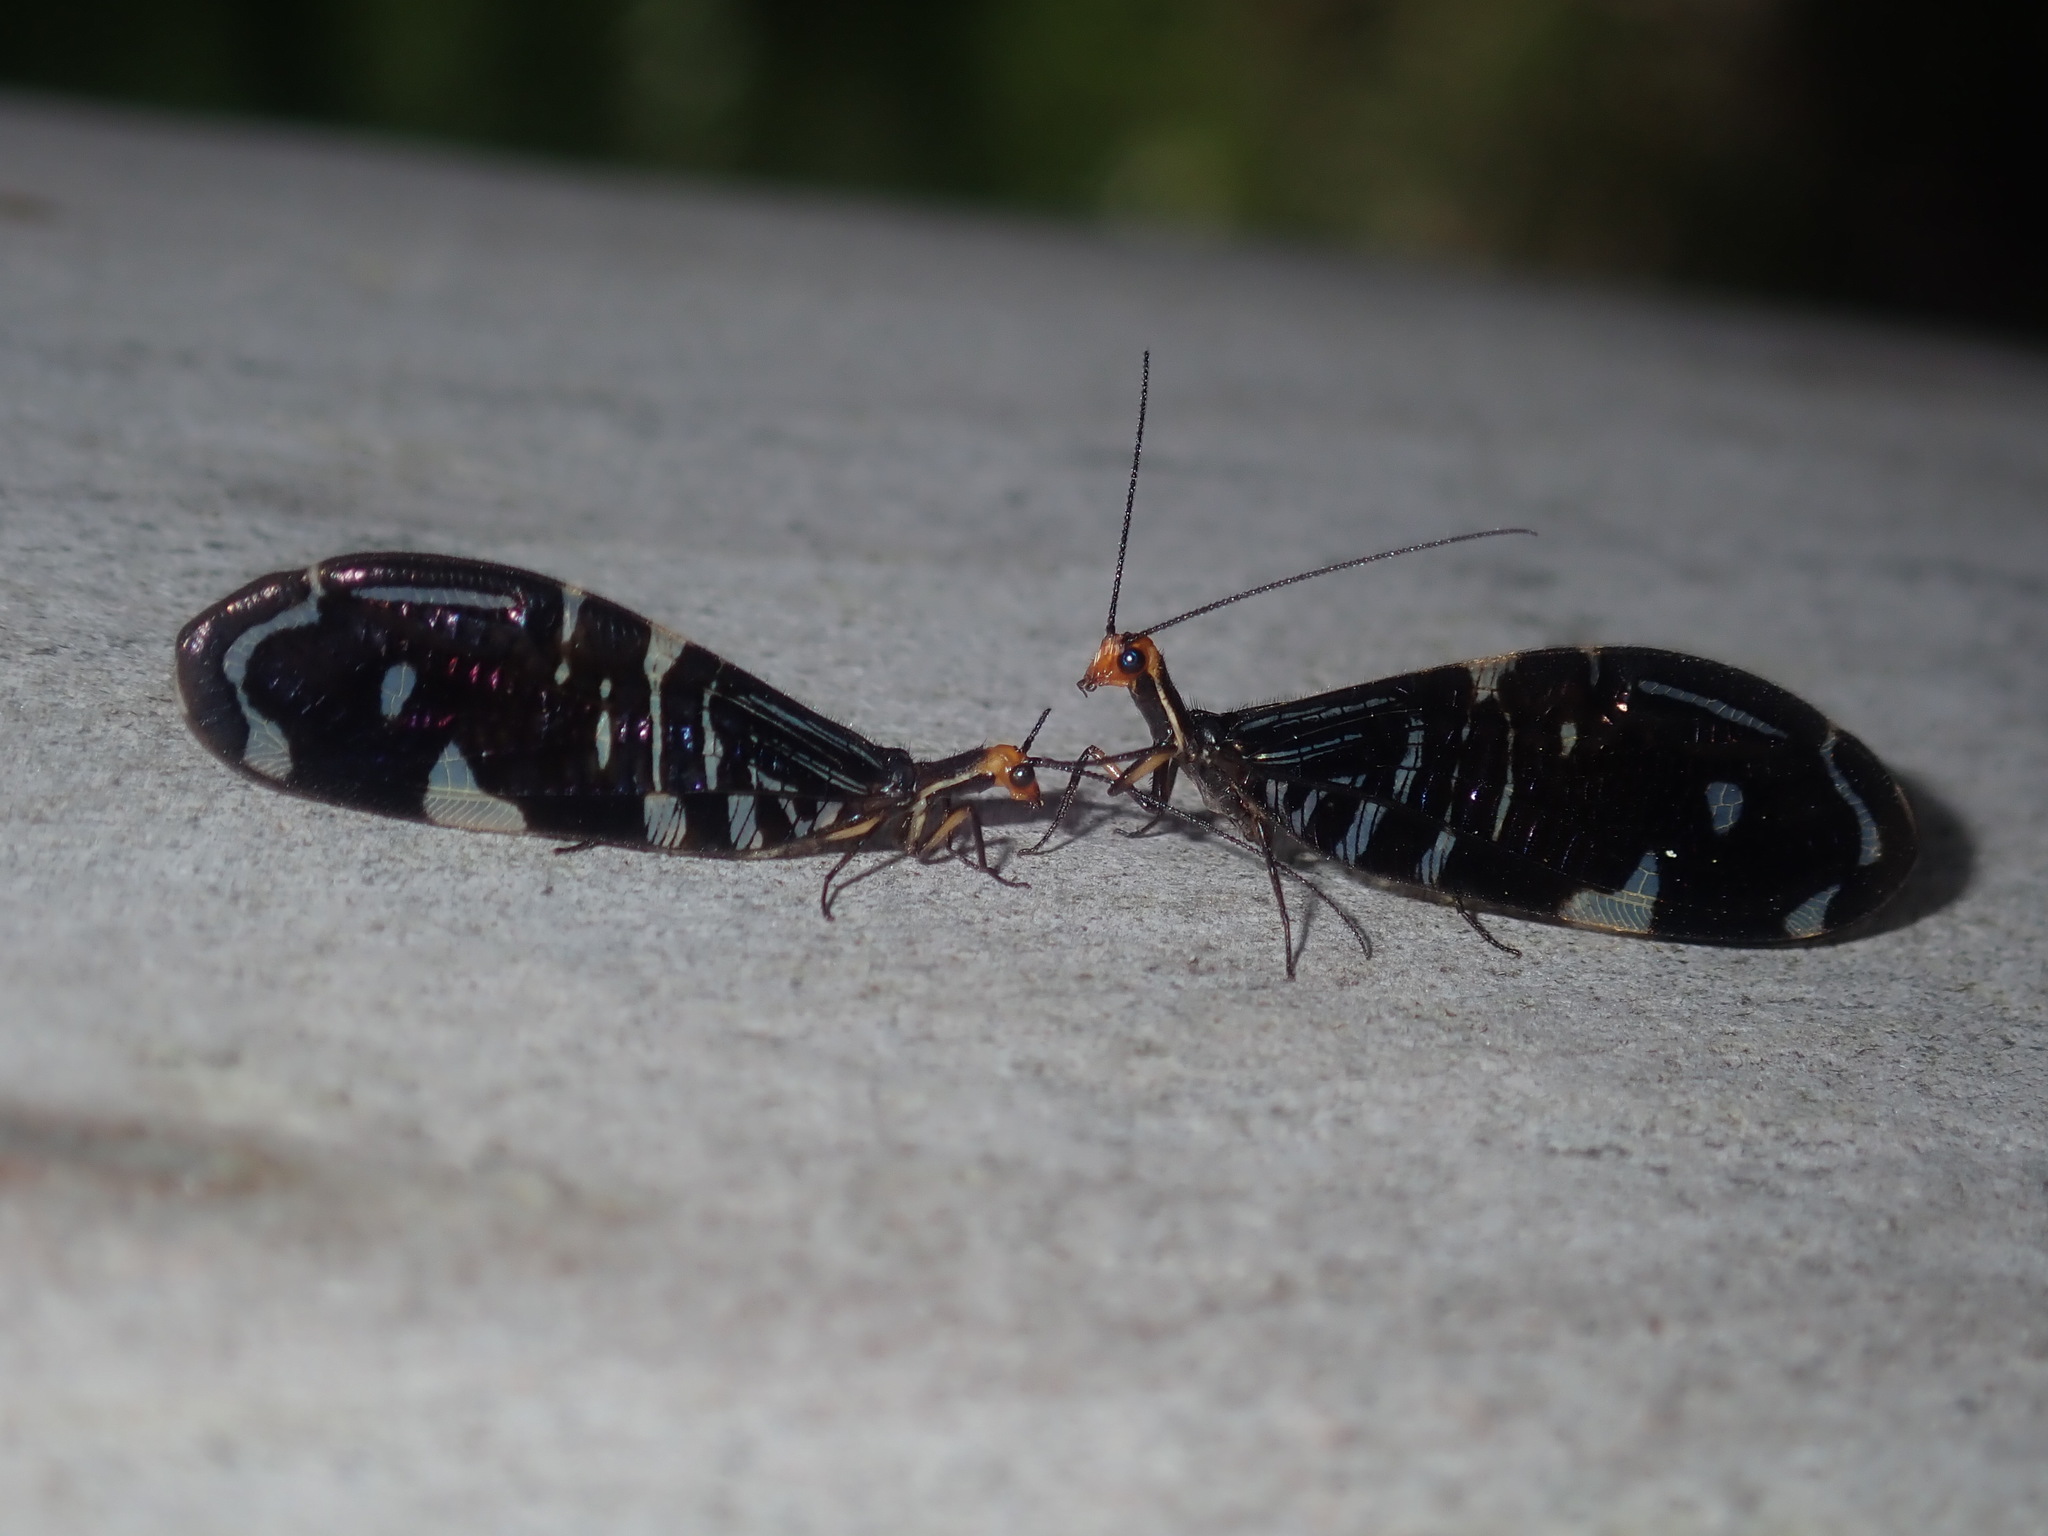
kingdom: Animalia
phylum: Arthropoda
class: Insecta
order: Neuroptera
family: Osmylidae
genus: Porismus
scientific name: Porismus strigatus
